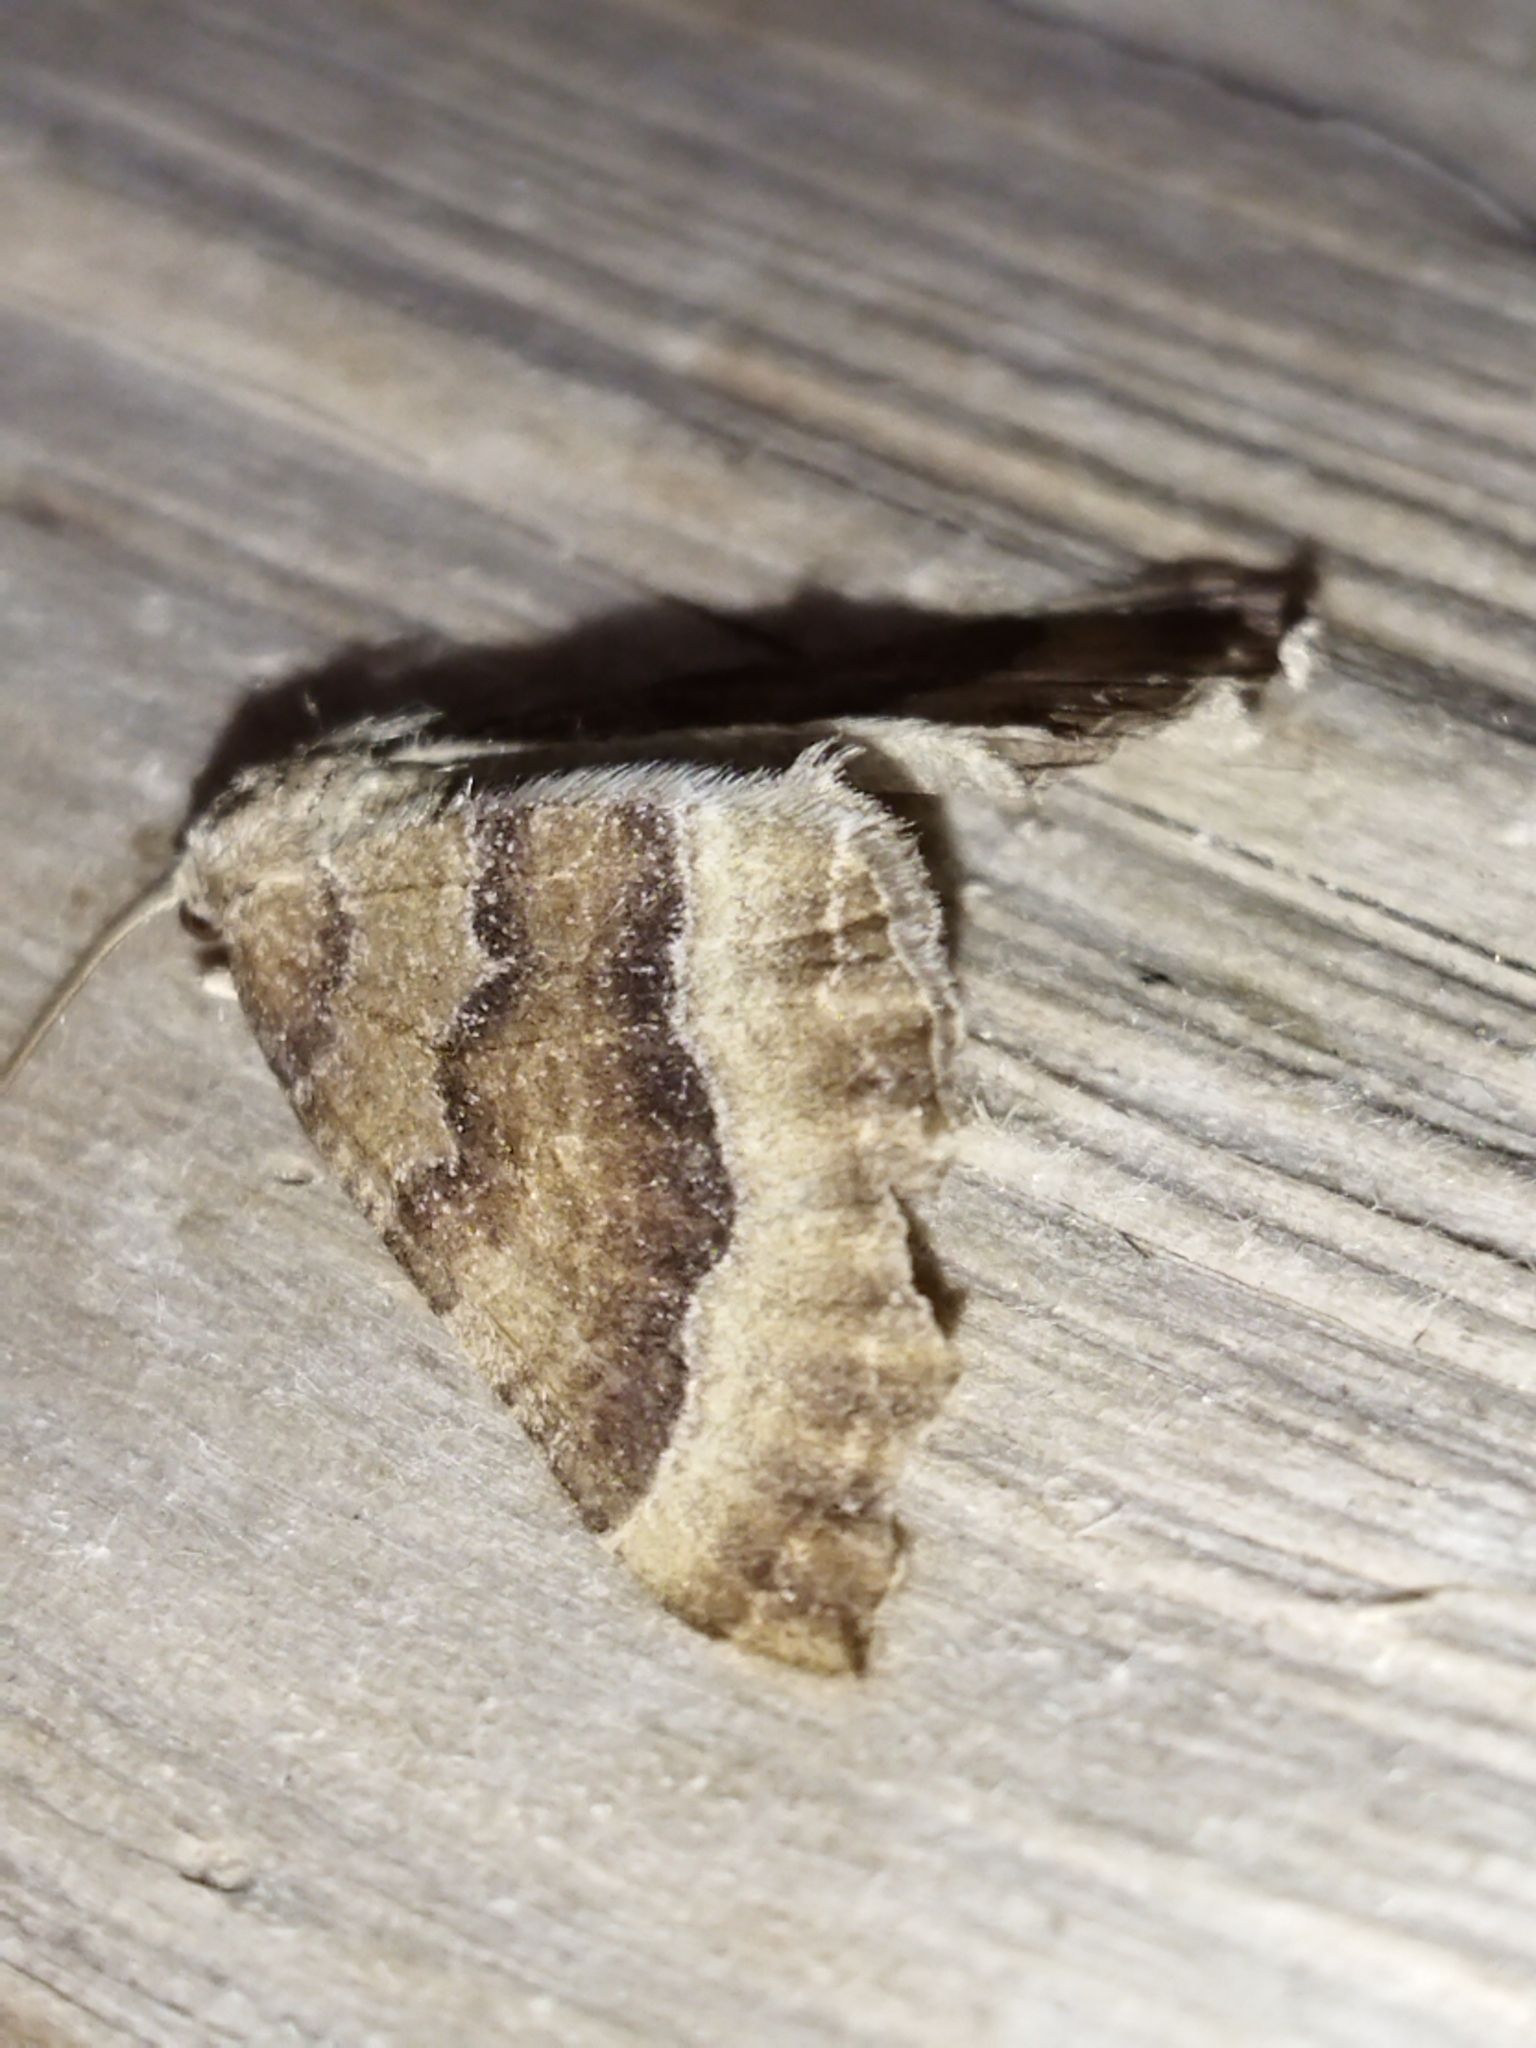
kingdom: Animalia
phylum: Arthropoda
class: Insecta
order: Lepidoptera
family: Geometridae
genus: Larentia
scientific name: Larentia clavaria
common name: Mallow
